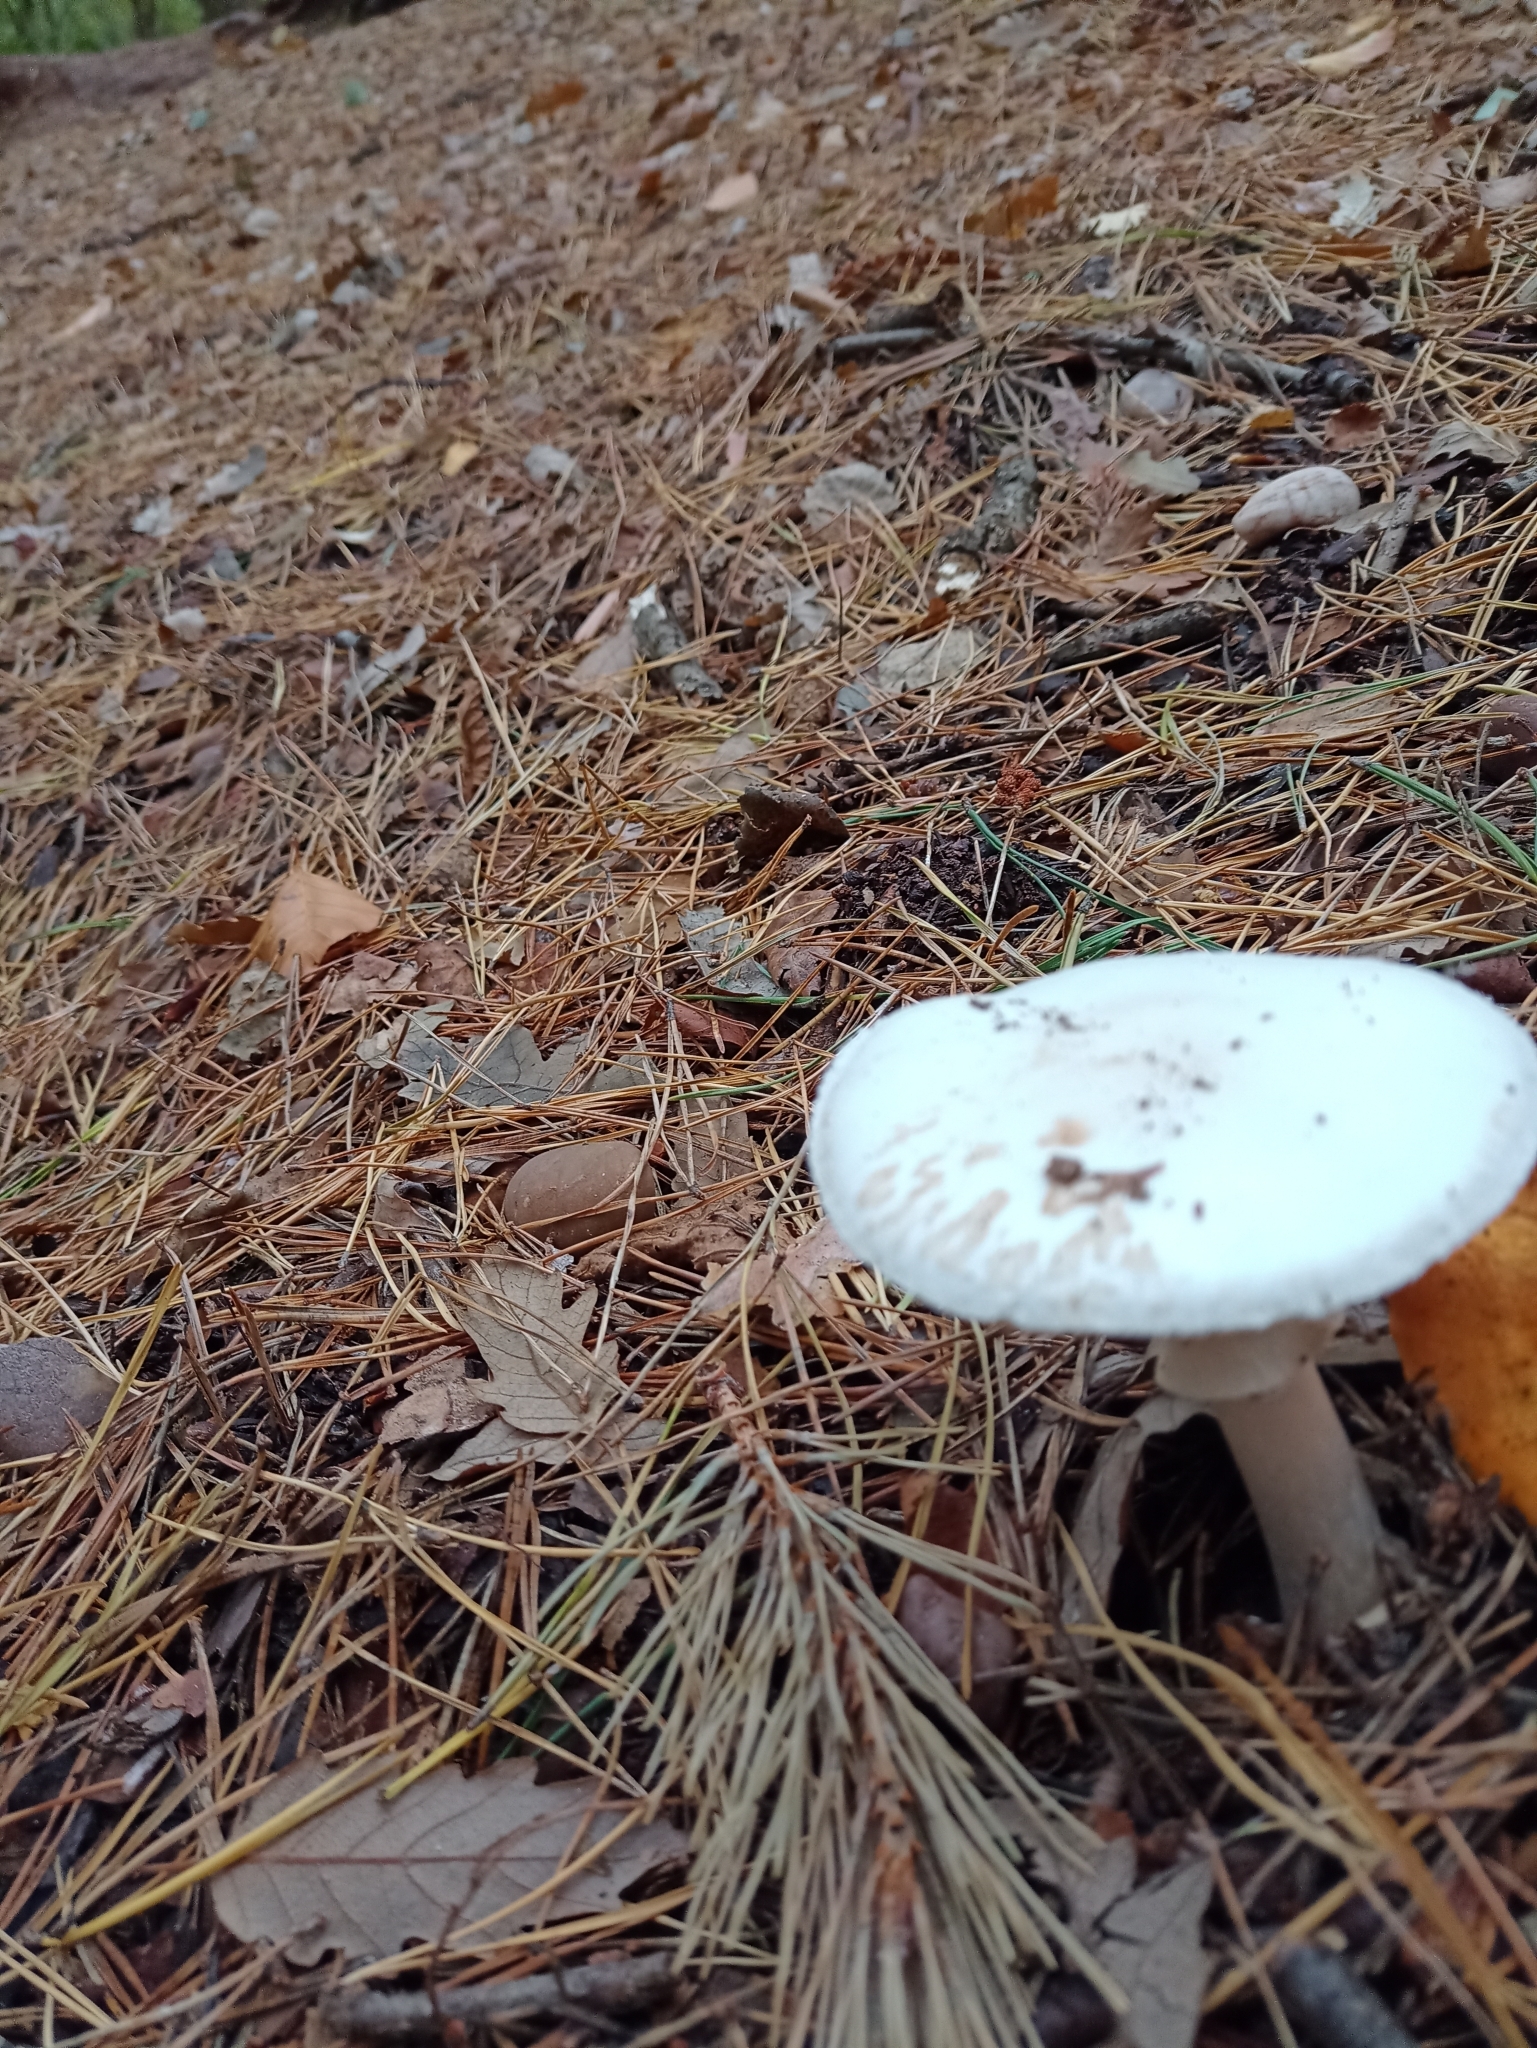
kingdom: Fungi
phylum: Basidiomycota
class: Agaricomycetes
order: Agaricales
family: Amanitaceae
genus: Amanita
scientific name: Amanita citrina
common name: False death-cap
